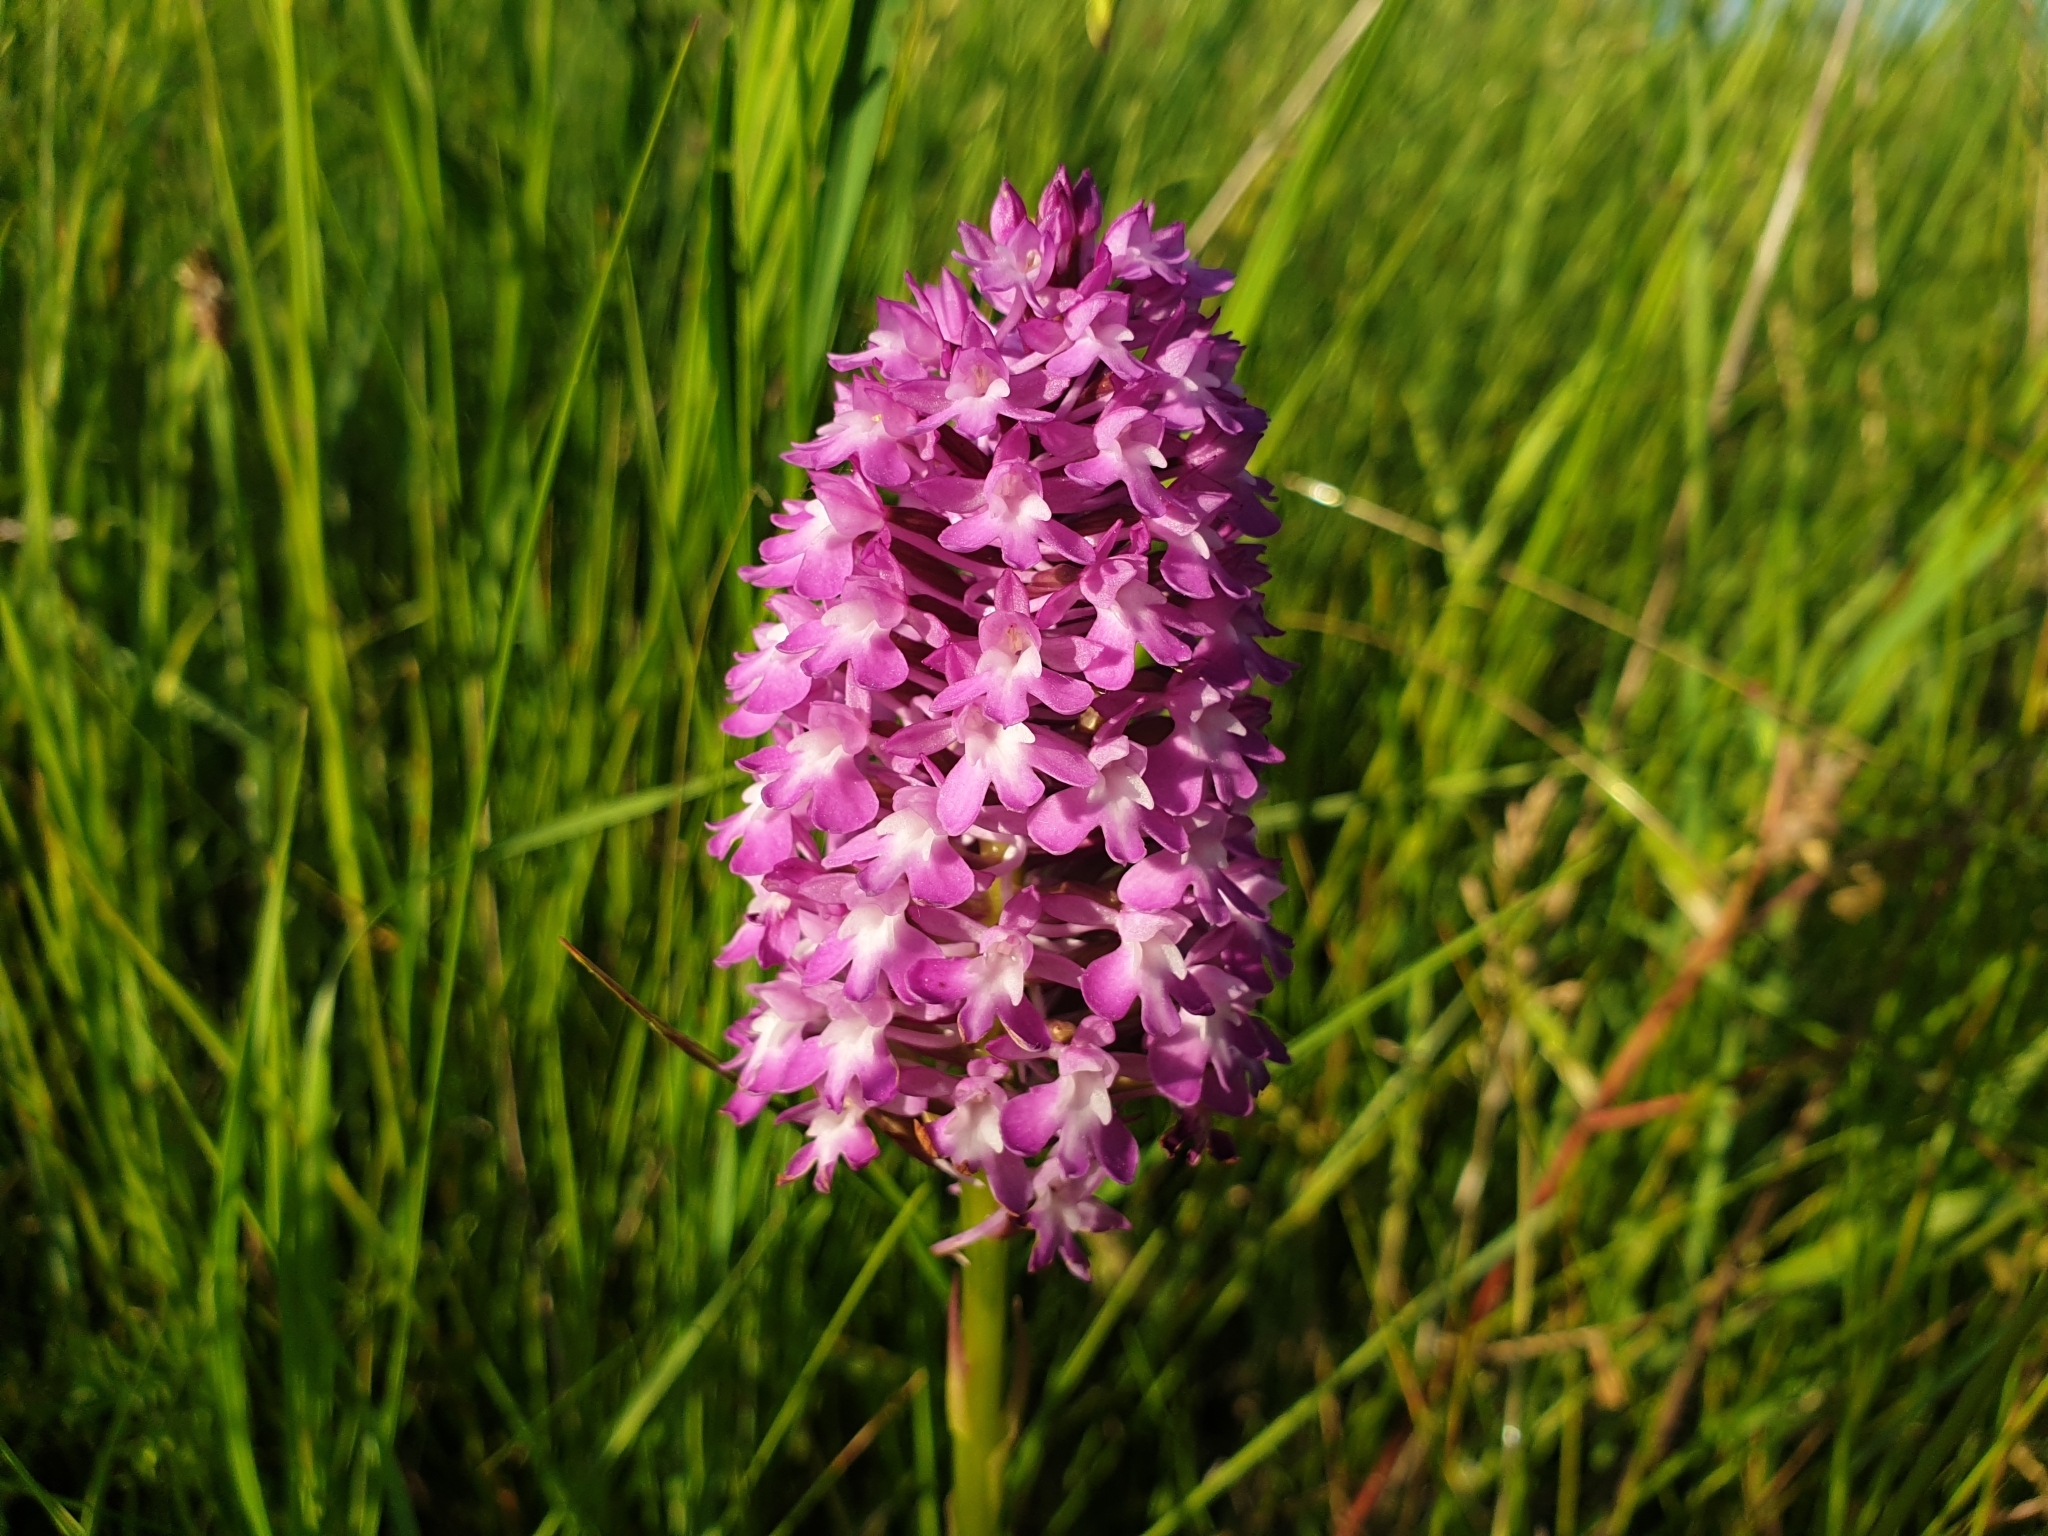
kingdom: Plantae
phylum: Tracheophyta
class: Liliopsida
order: Asparagales
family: Orchidaceae
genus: Anacamptis
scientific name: Anacamptis pyramidalis
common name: Pyramidal orchid
